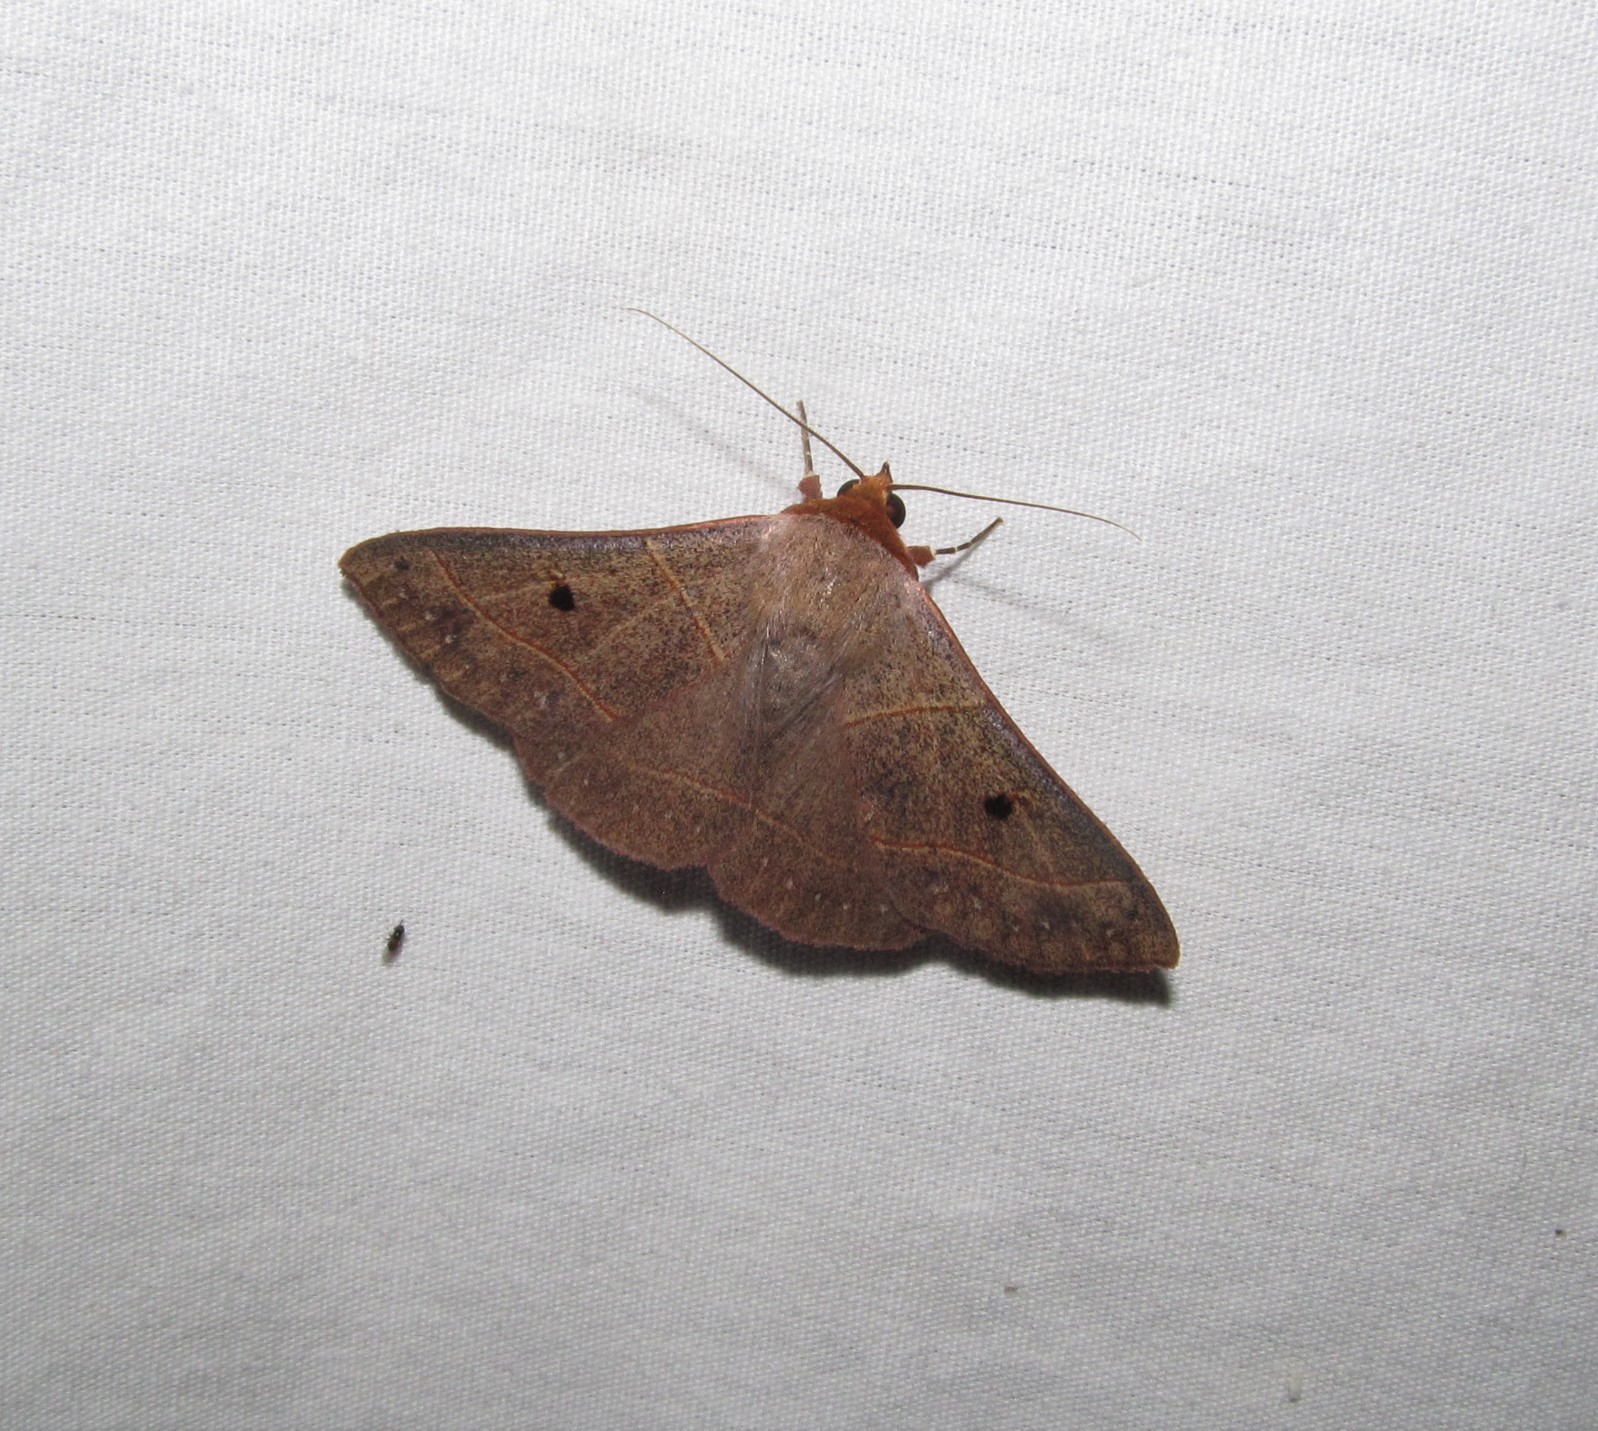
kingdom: Animalia
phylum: Arthropoda
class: Insecta
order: Lepidoptera
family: Erebidae
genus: Panopoda
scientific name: Panopoda rufimargo
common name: Red-lined panopoda moth
